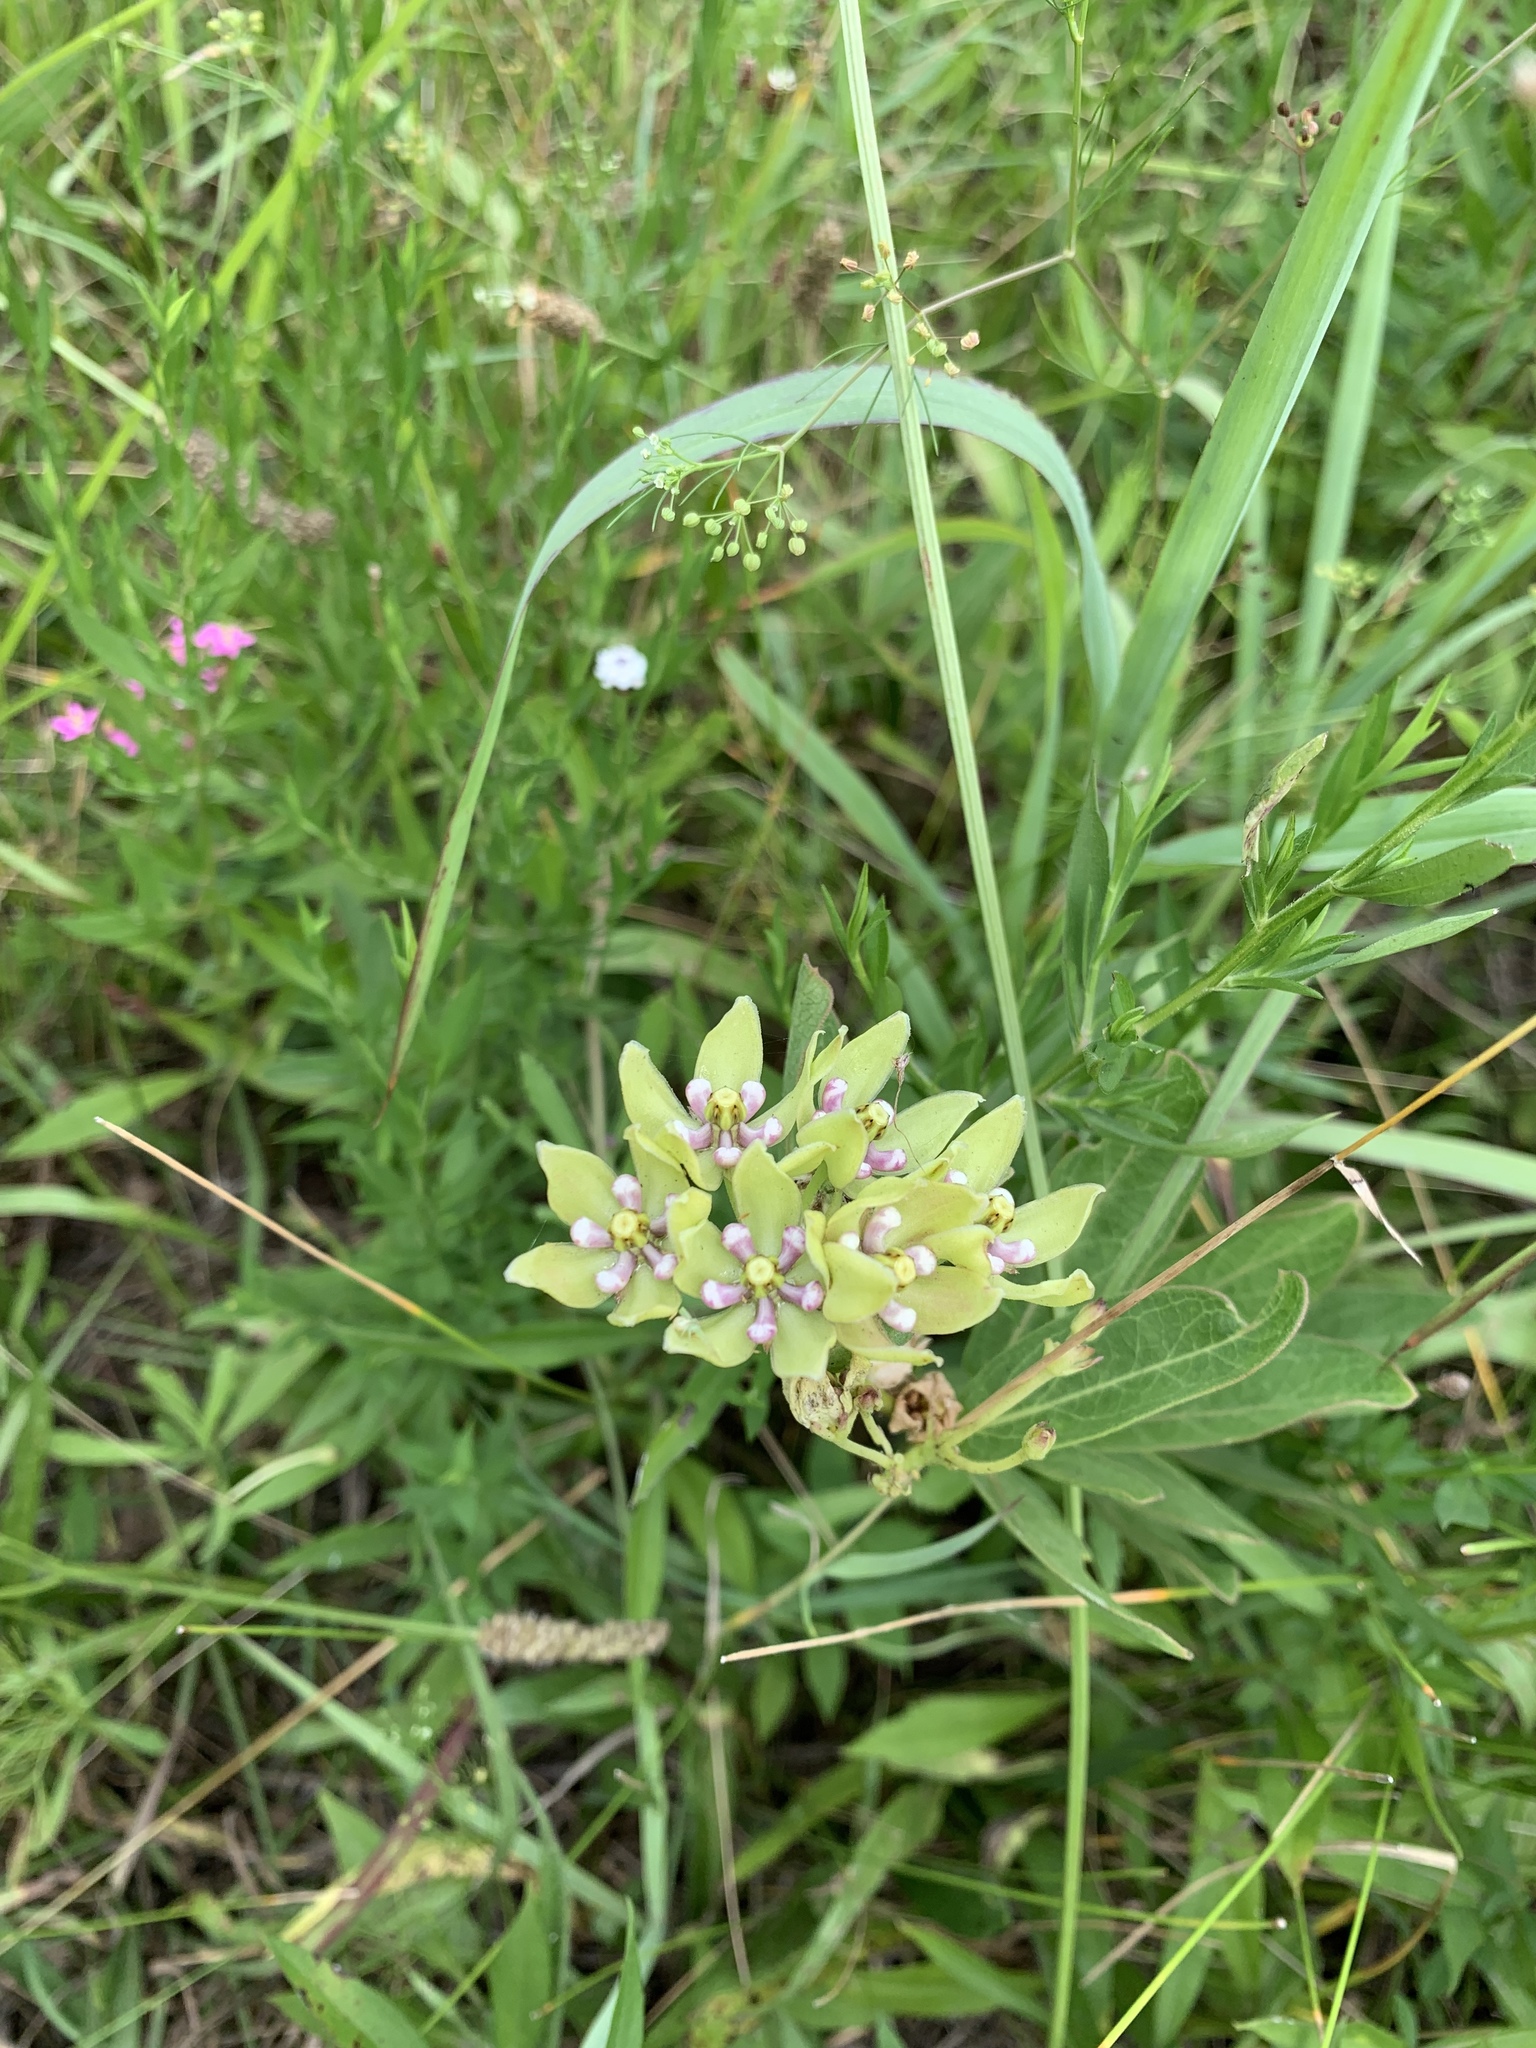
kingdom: Plantae
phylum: Tracheophyta
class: Magnoliopsida
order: Gentianales
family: Apocynaceae
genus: Asclepias
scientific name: Asclepias viridis
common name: Antelope-horns
